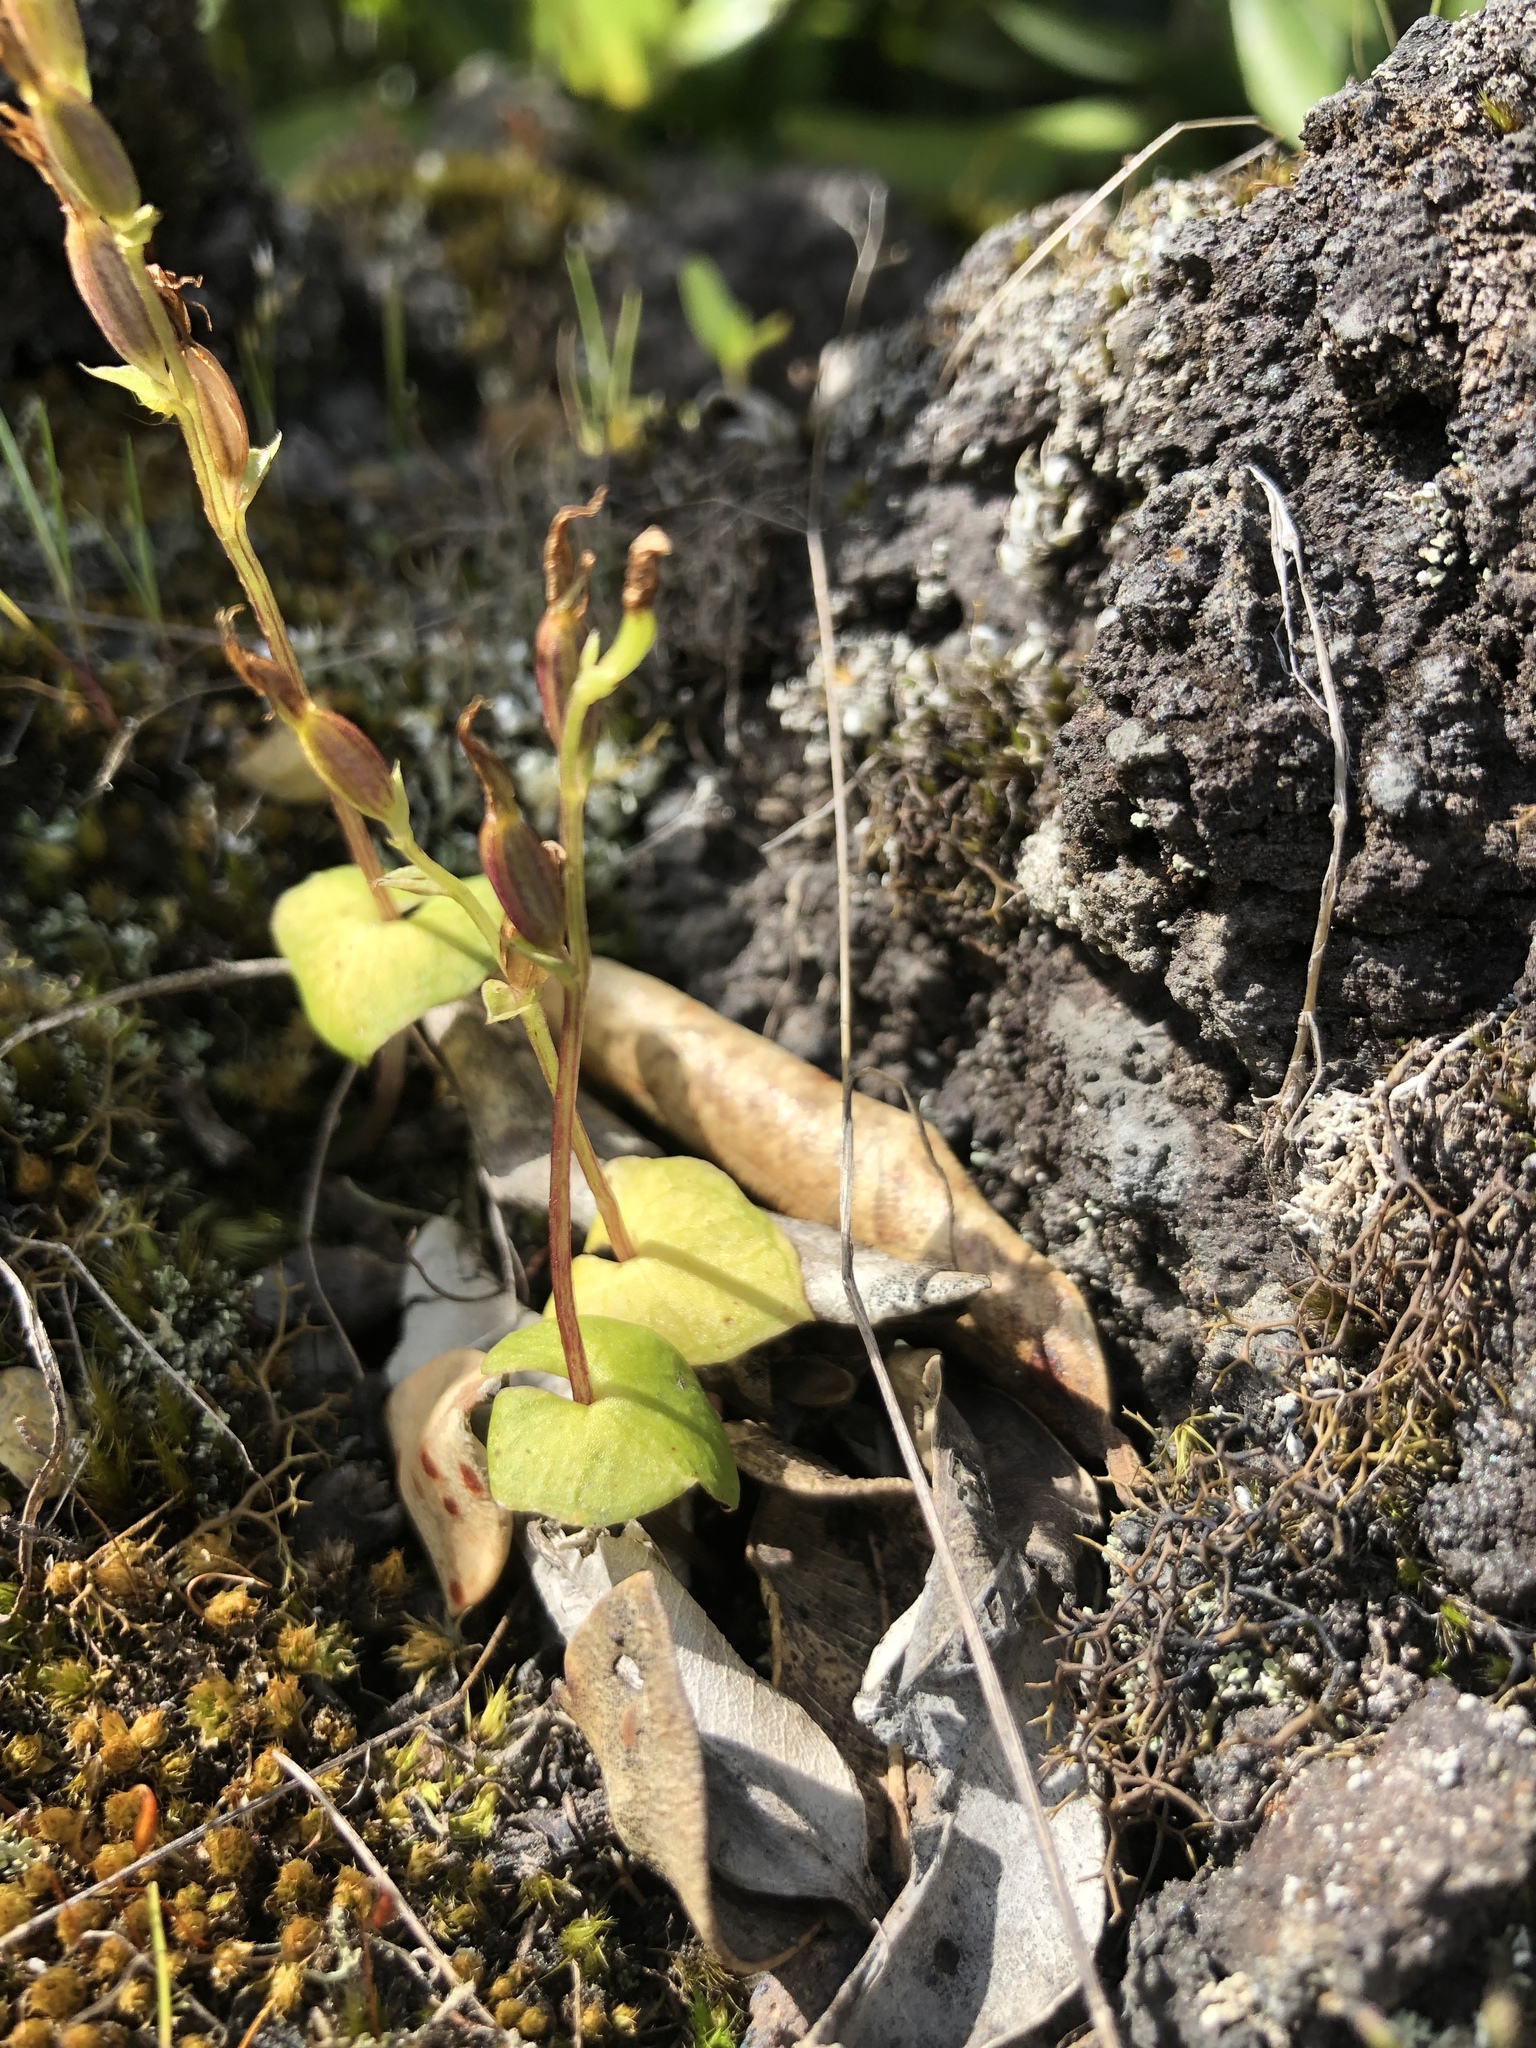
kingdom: Plantae
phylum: Tracheophyta
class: Liliopsida
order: Asparagales
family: Orchidaceae
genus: Acianthus
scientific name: Acianthus sinclairii
